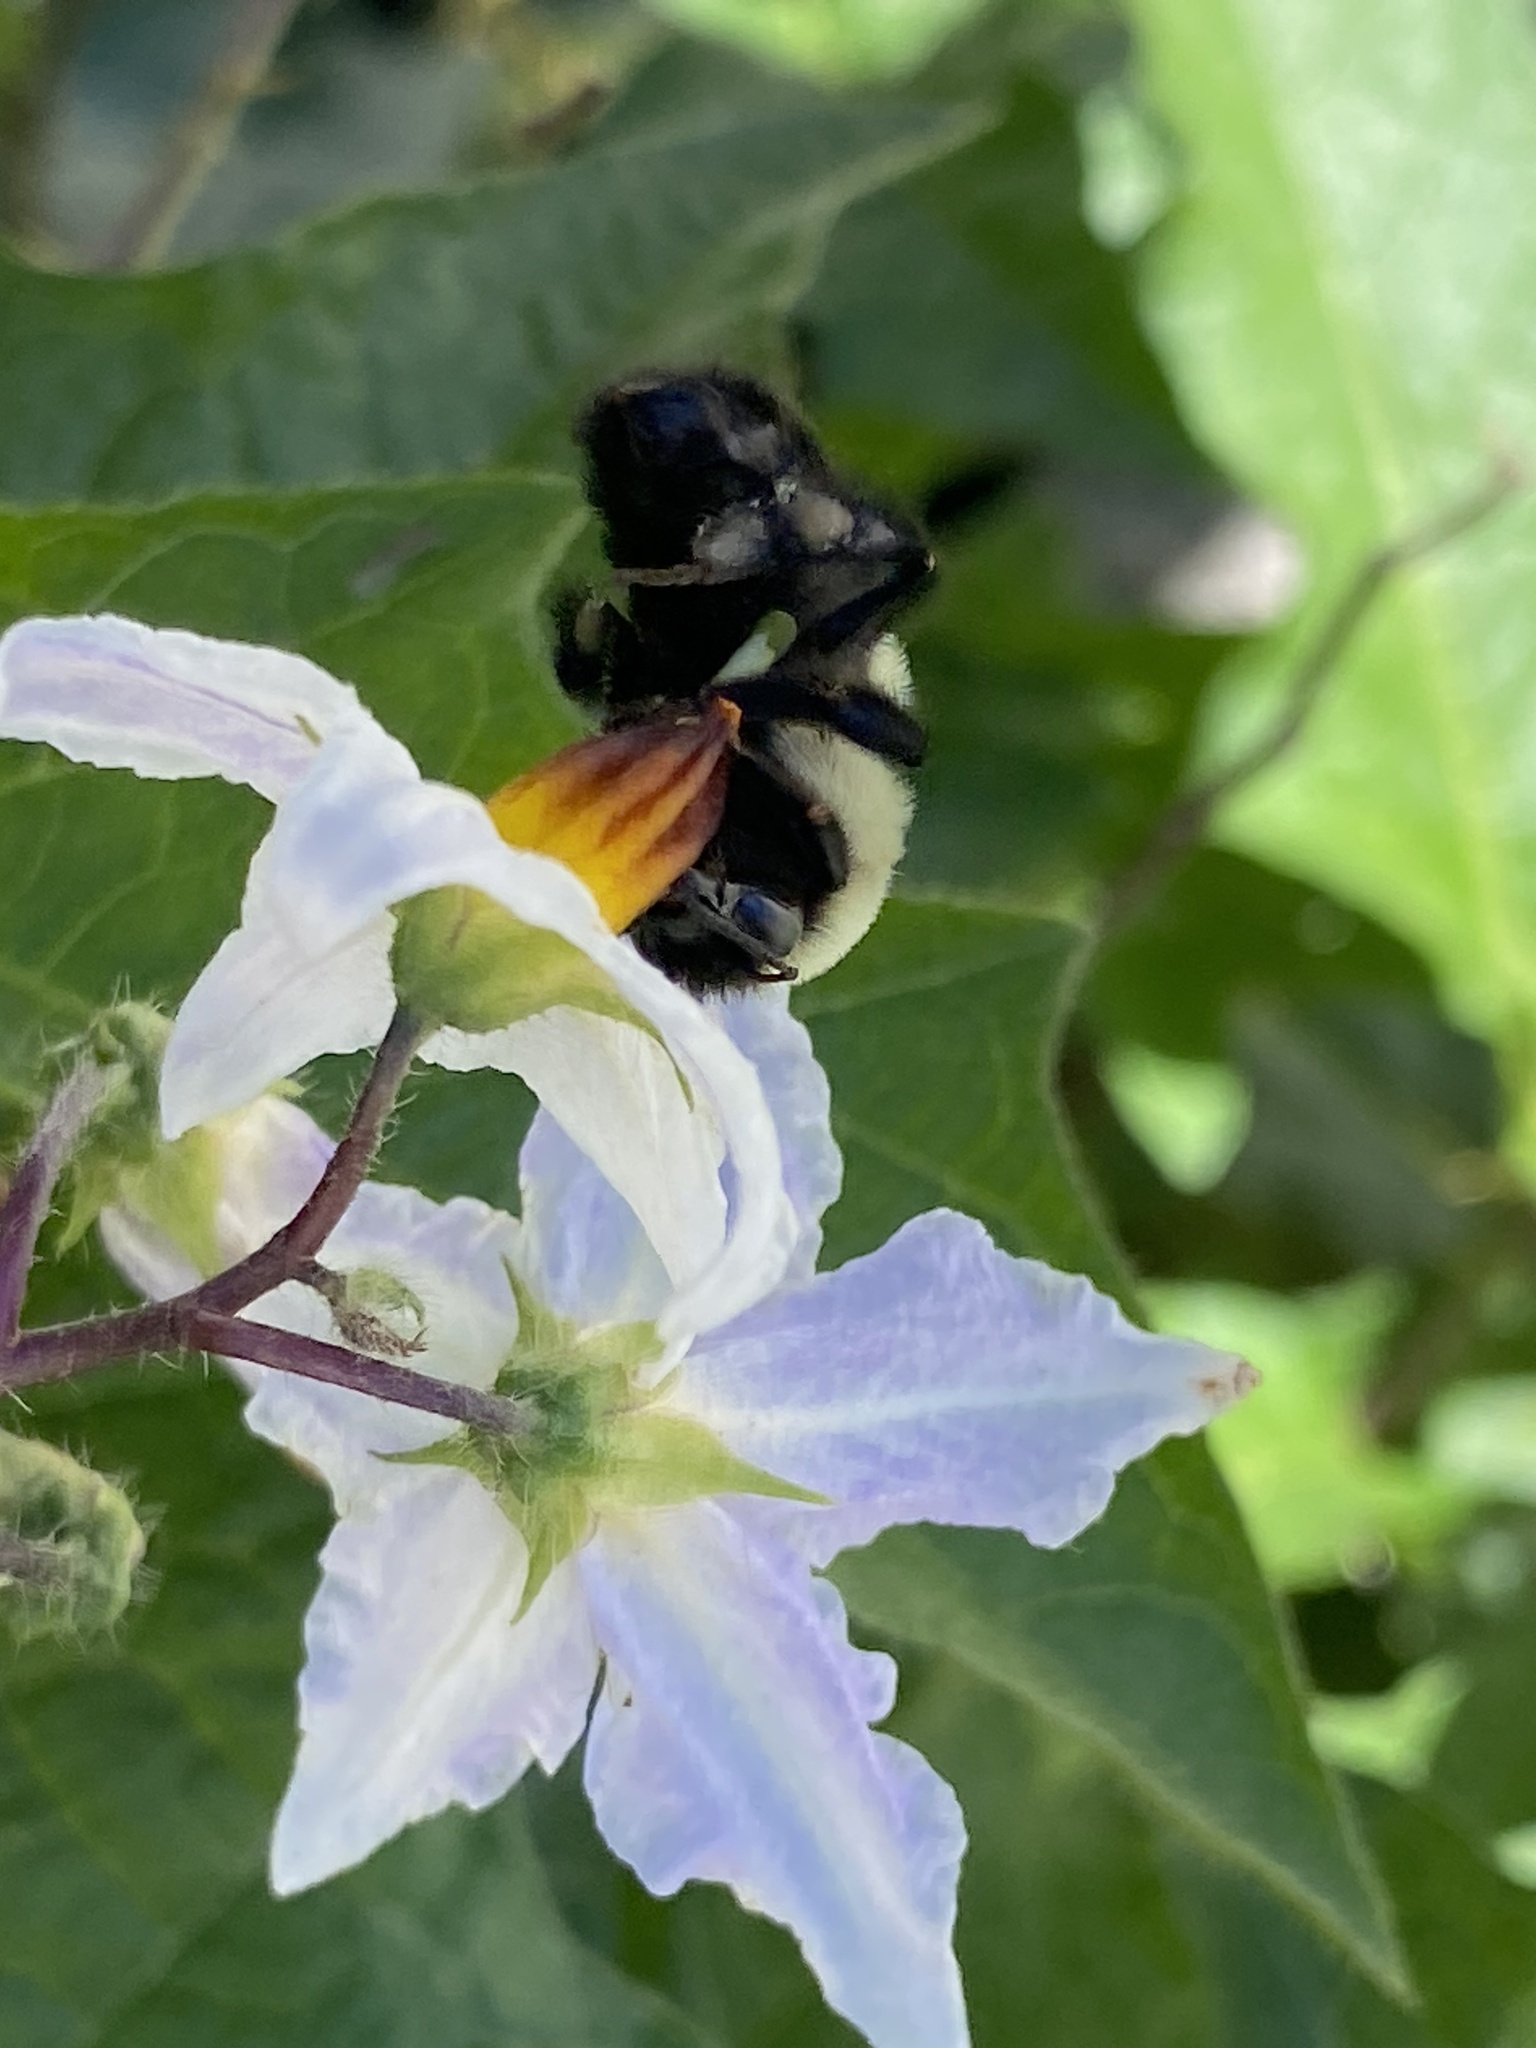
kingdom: Animalia
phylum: Arthropoda
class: Insecta
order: Hymenoptera
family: Apidae
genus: Bombus
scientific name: Bombus impatiens
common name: Common eastern bumble bee
